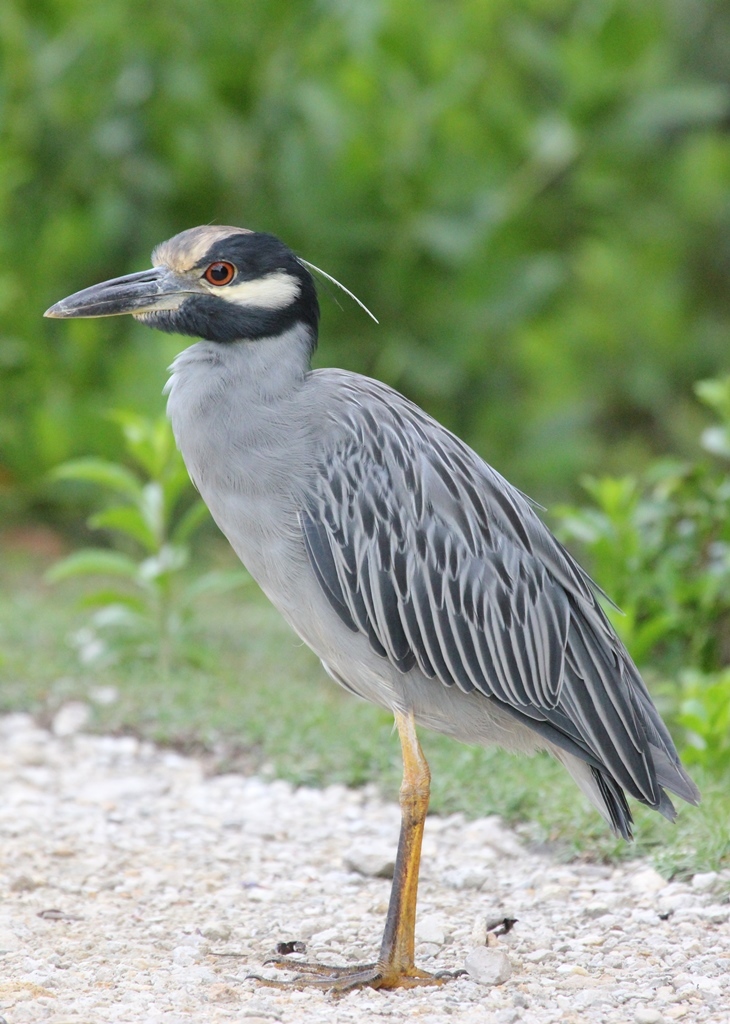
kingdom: Animalia
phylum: Chordata
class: Aves
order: Pelecaniformes
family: Ardeidae
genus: Nyctanassa
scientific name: Nyctanassa violacea
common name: Yellow-crowned night heron
